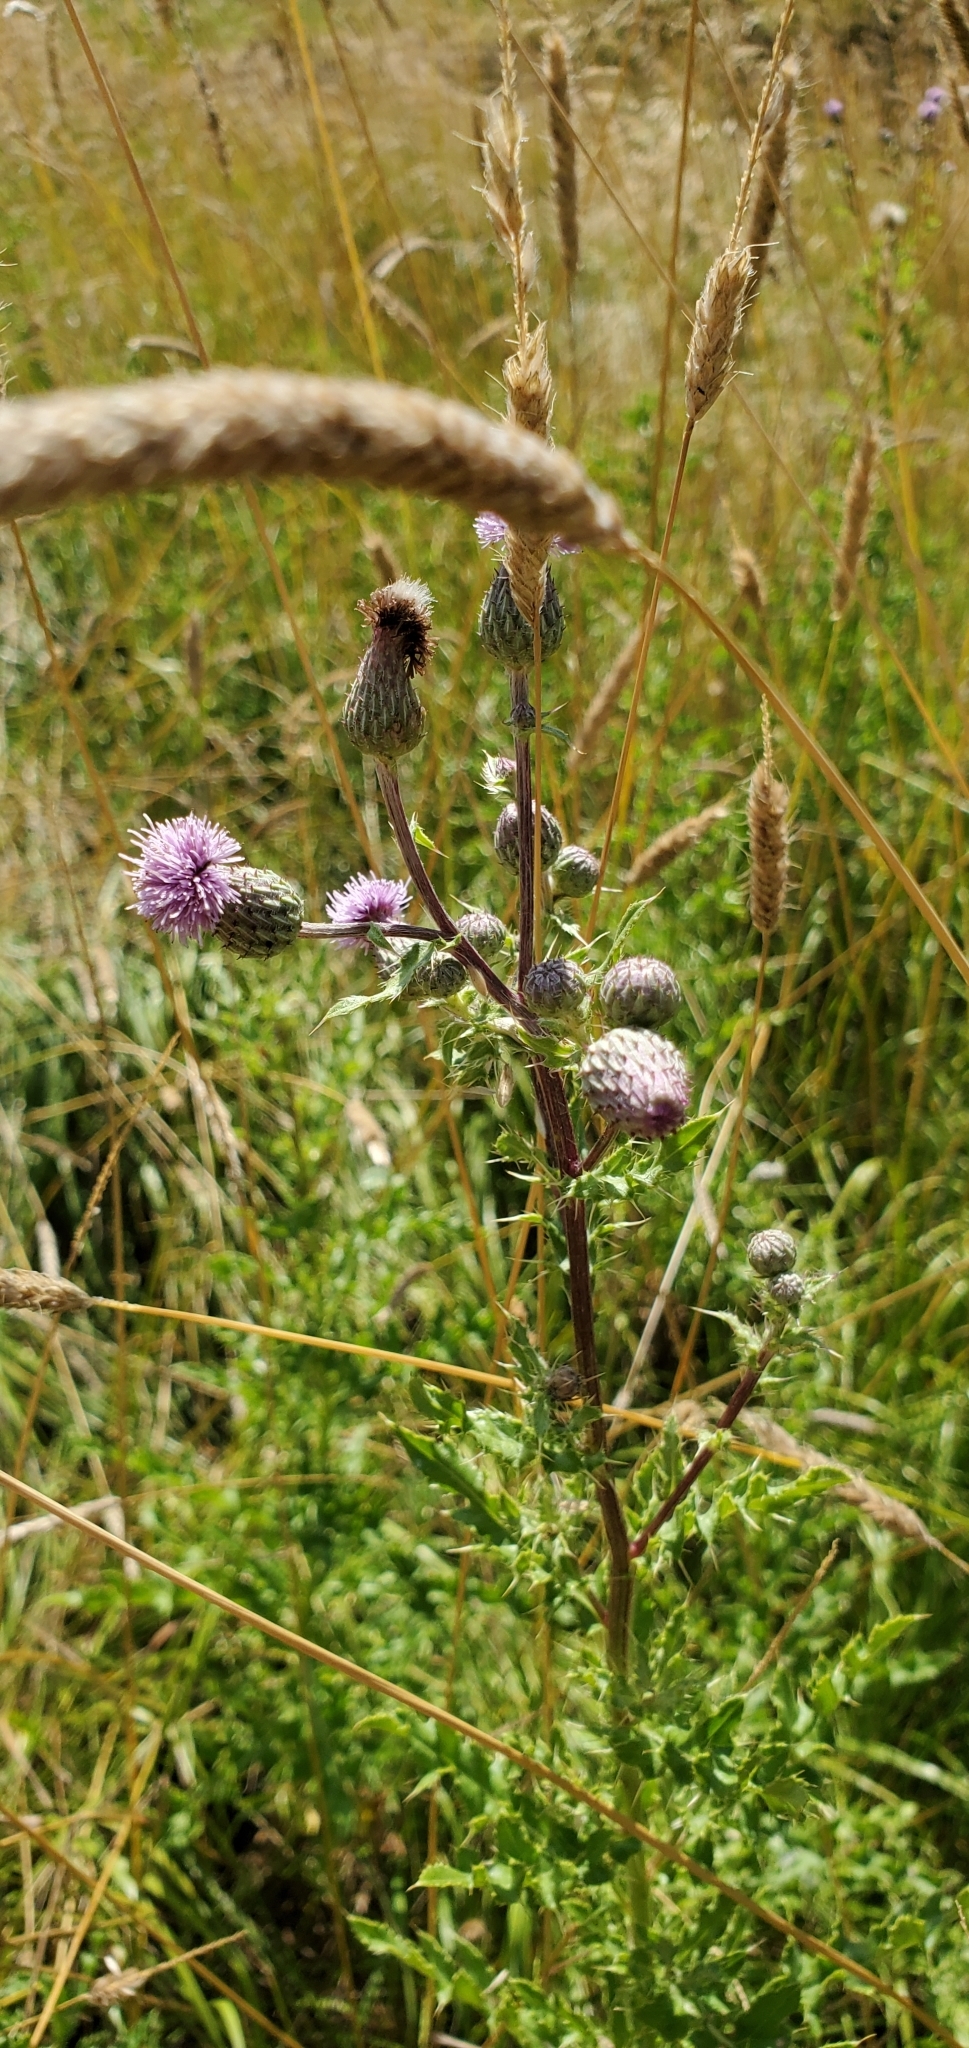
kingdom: Plantae
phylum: Tracheophyta
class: Magnoliopsida
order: Asterales
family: Asteraceae
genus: Cirsium
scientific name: Cirsium arvense
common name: Creeping thistle
